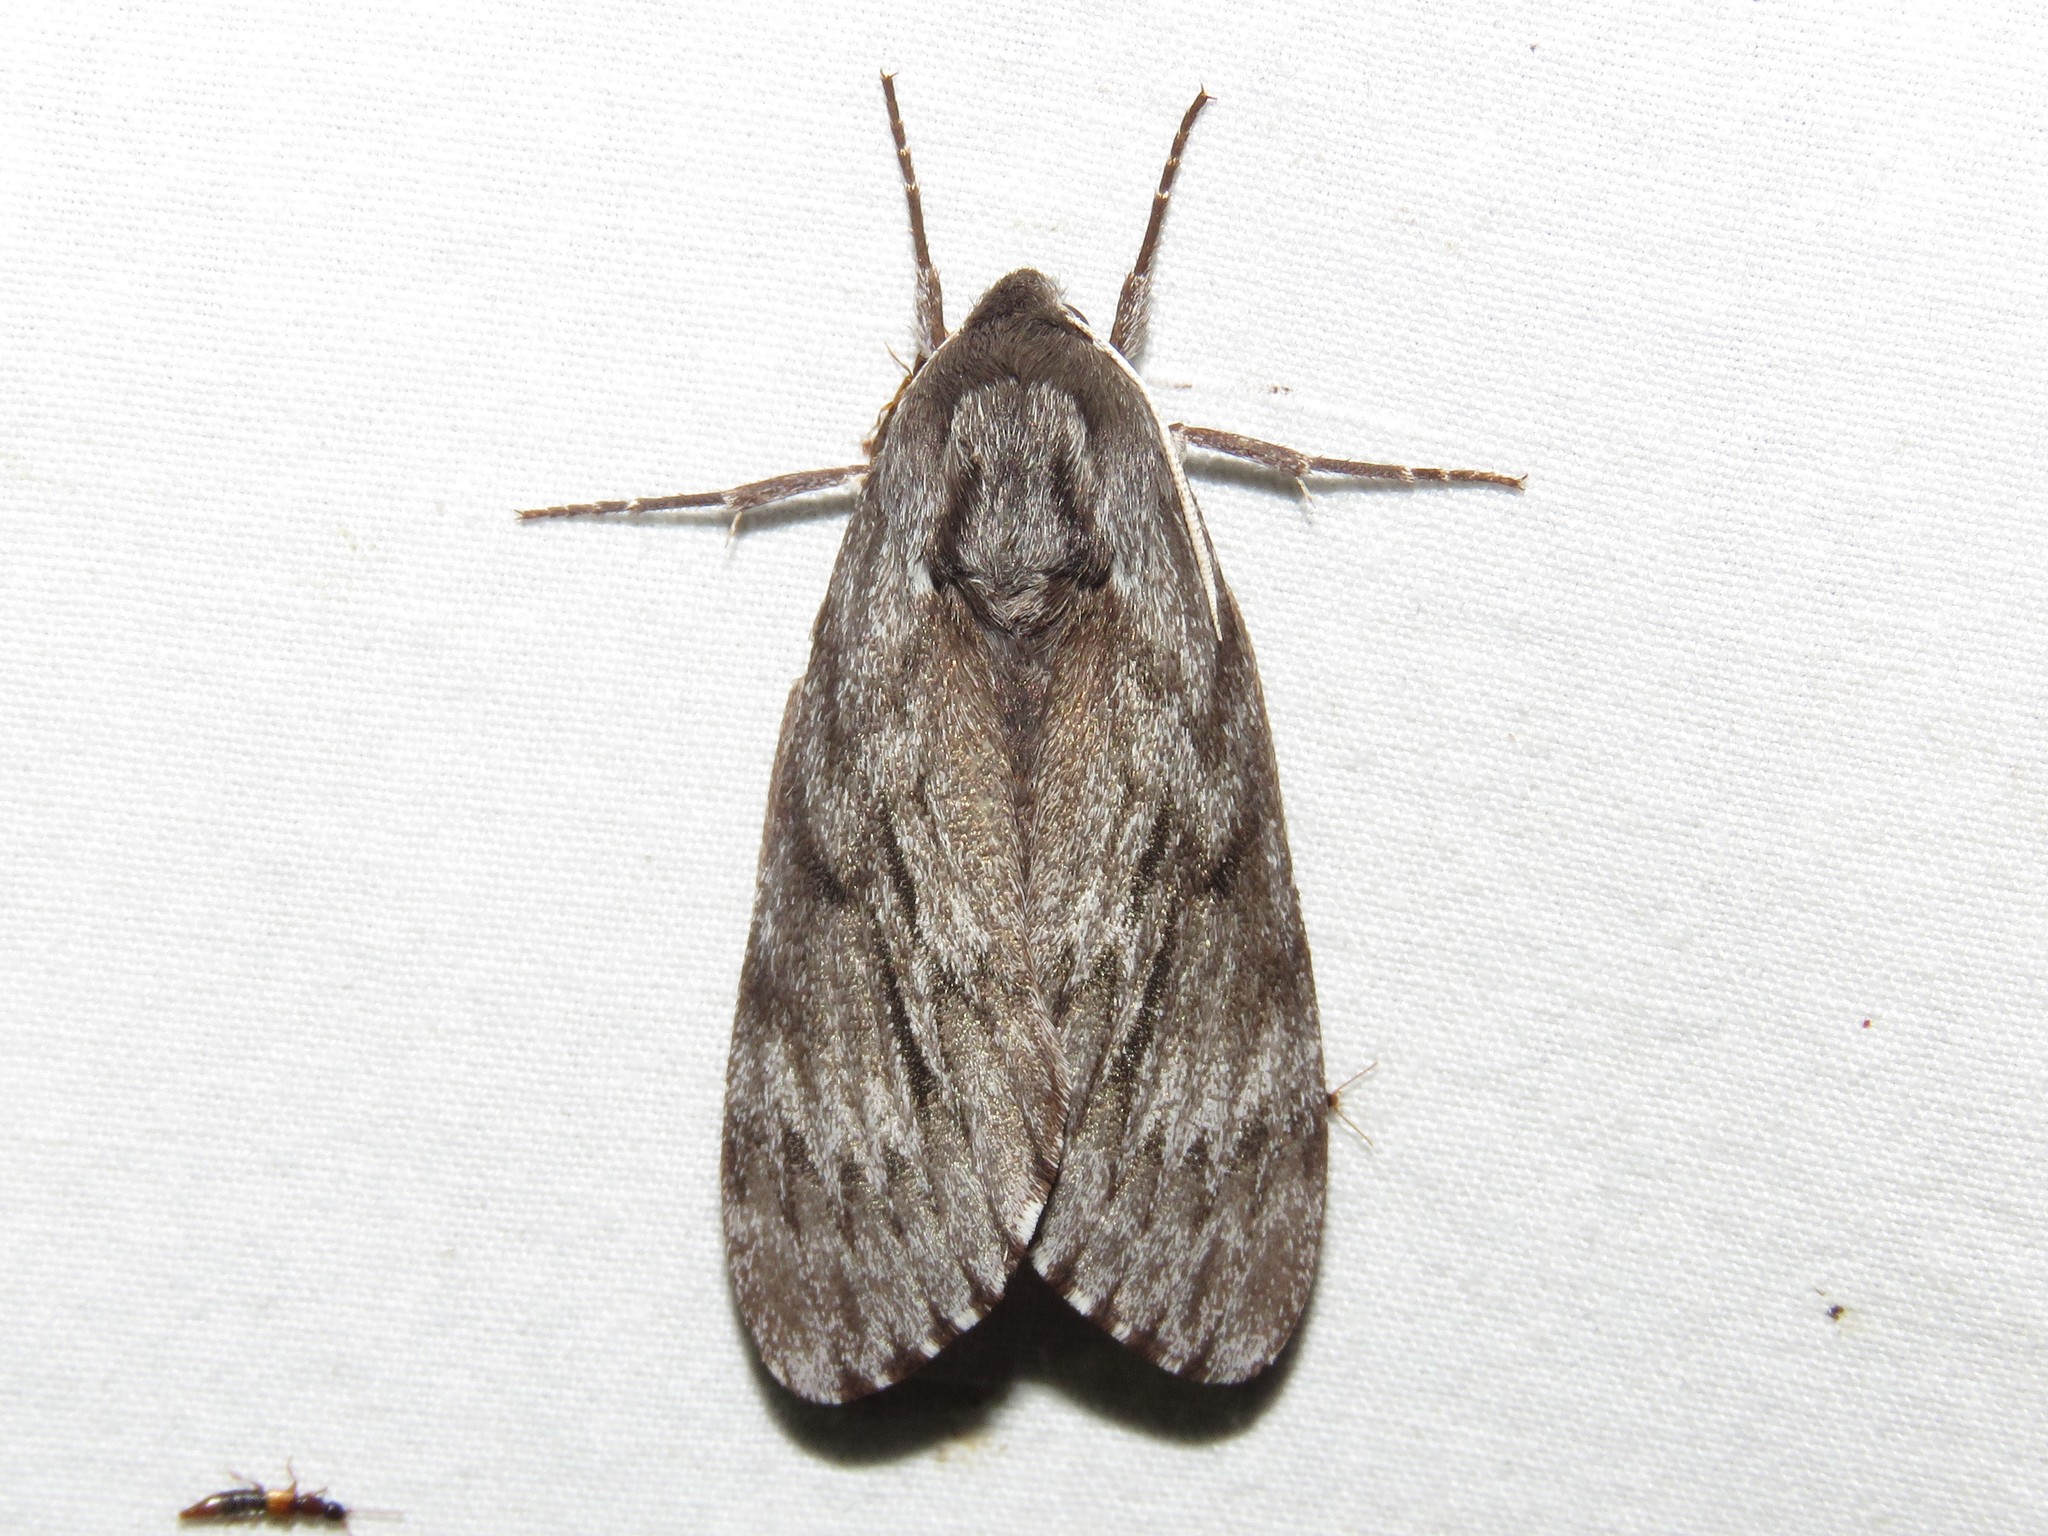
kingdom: Animalia
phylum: Arthropoda
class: Insecta
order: Lepidoptera
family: Sphingidae
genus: Lapara
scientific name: Lapara bombycoides
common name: Northern pine sphinx
